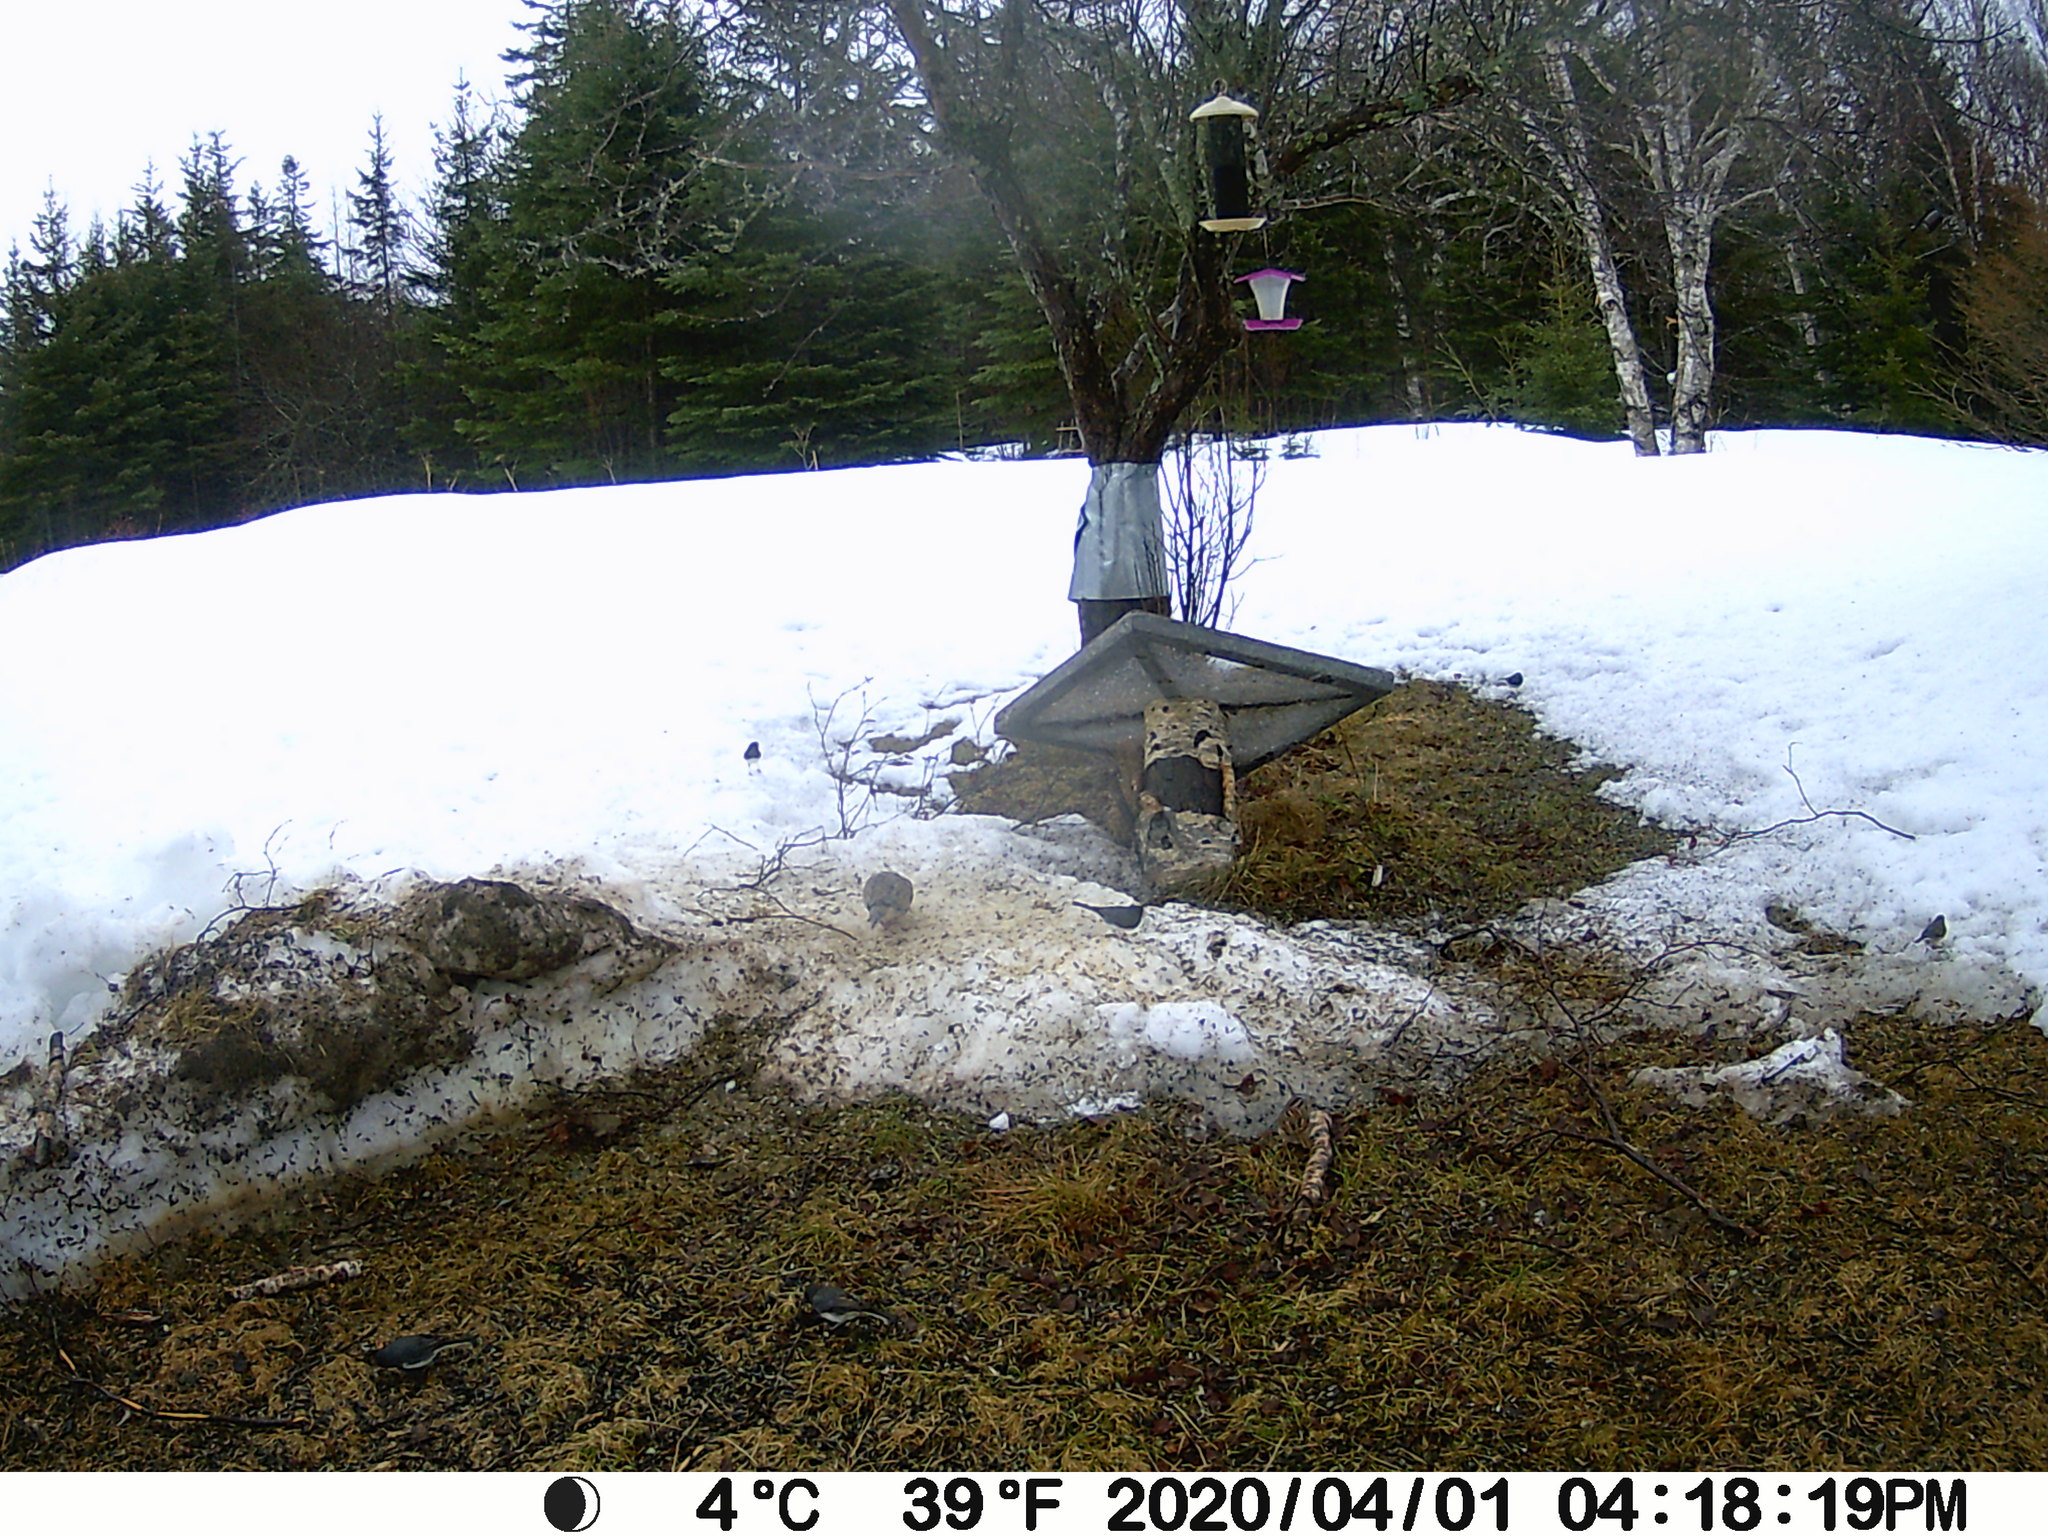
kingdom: Animalia
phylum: Chordata
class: Aves
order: Passeriformes
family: Passerellidae
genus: Melospiza
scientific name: Melospiza melodia
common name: Song sparrow
